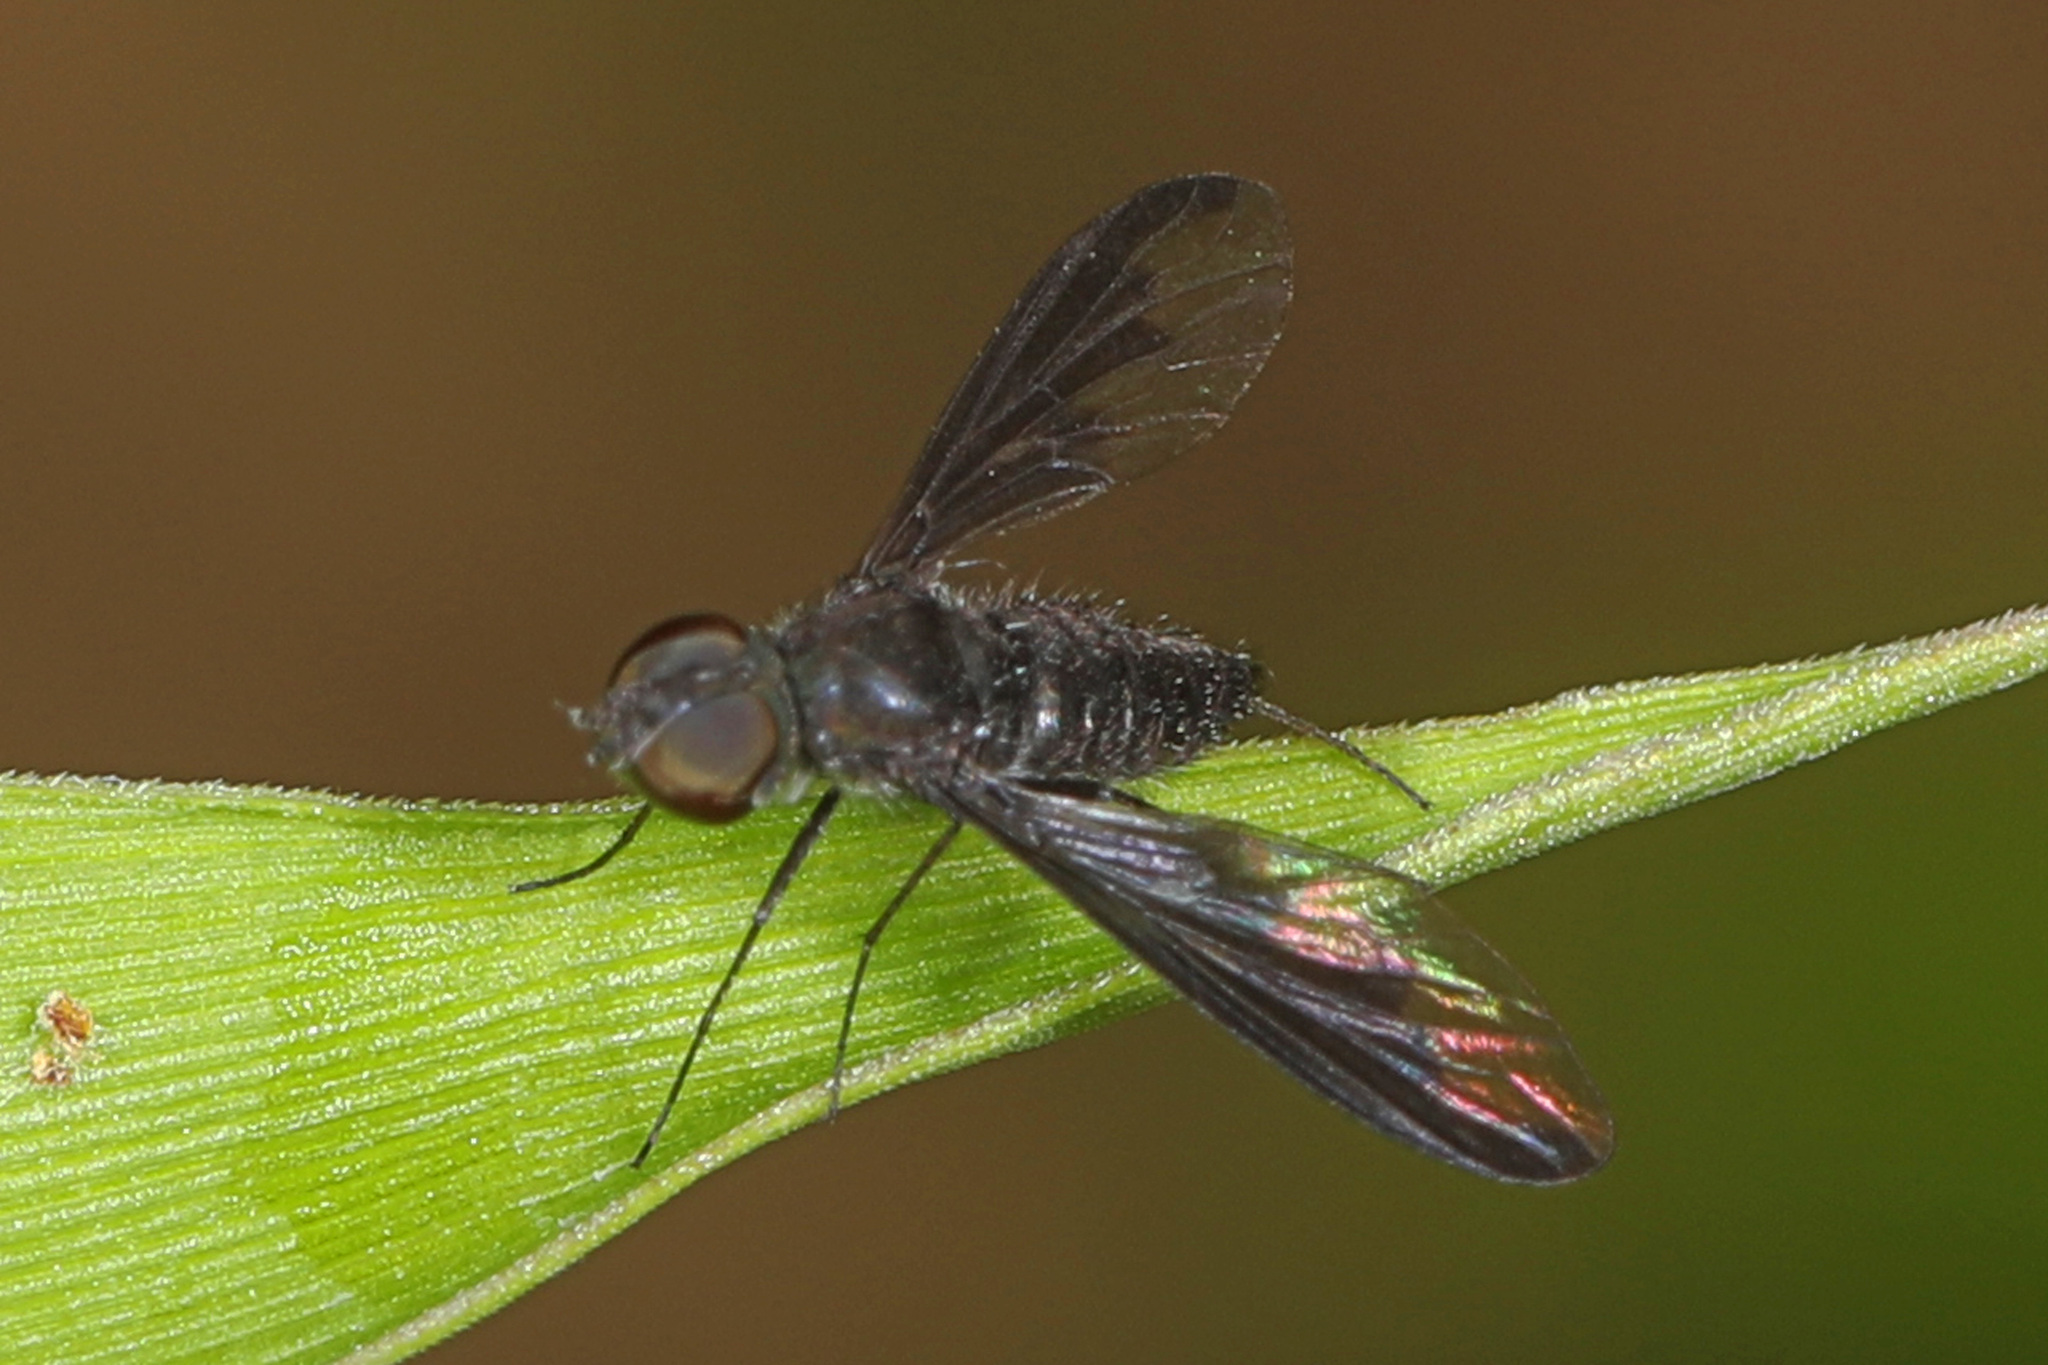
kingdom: Animalia
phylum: Arthropoda
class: Insecta
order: Diptera
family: Bombyliidae
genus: Anthrax
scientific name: Anthrax argyropygus
